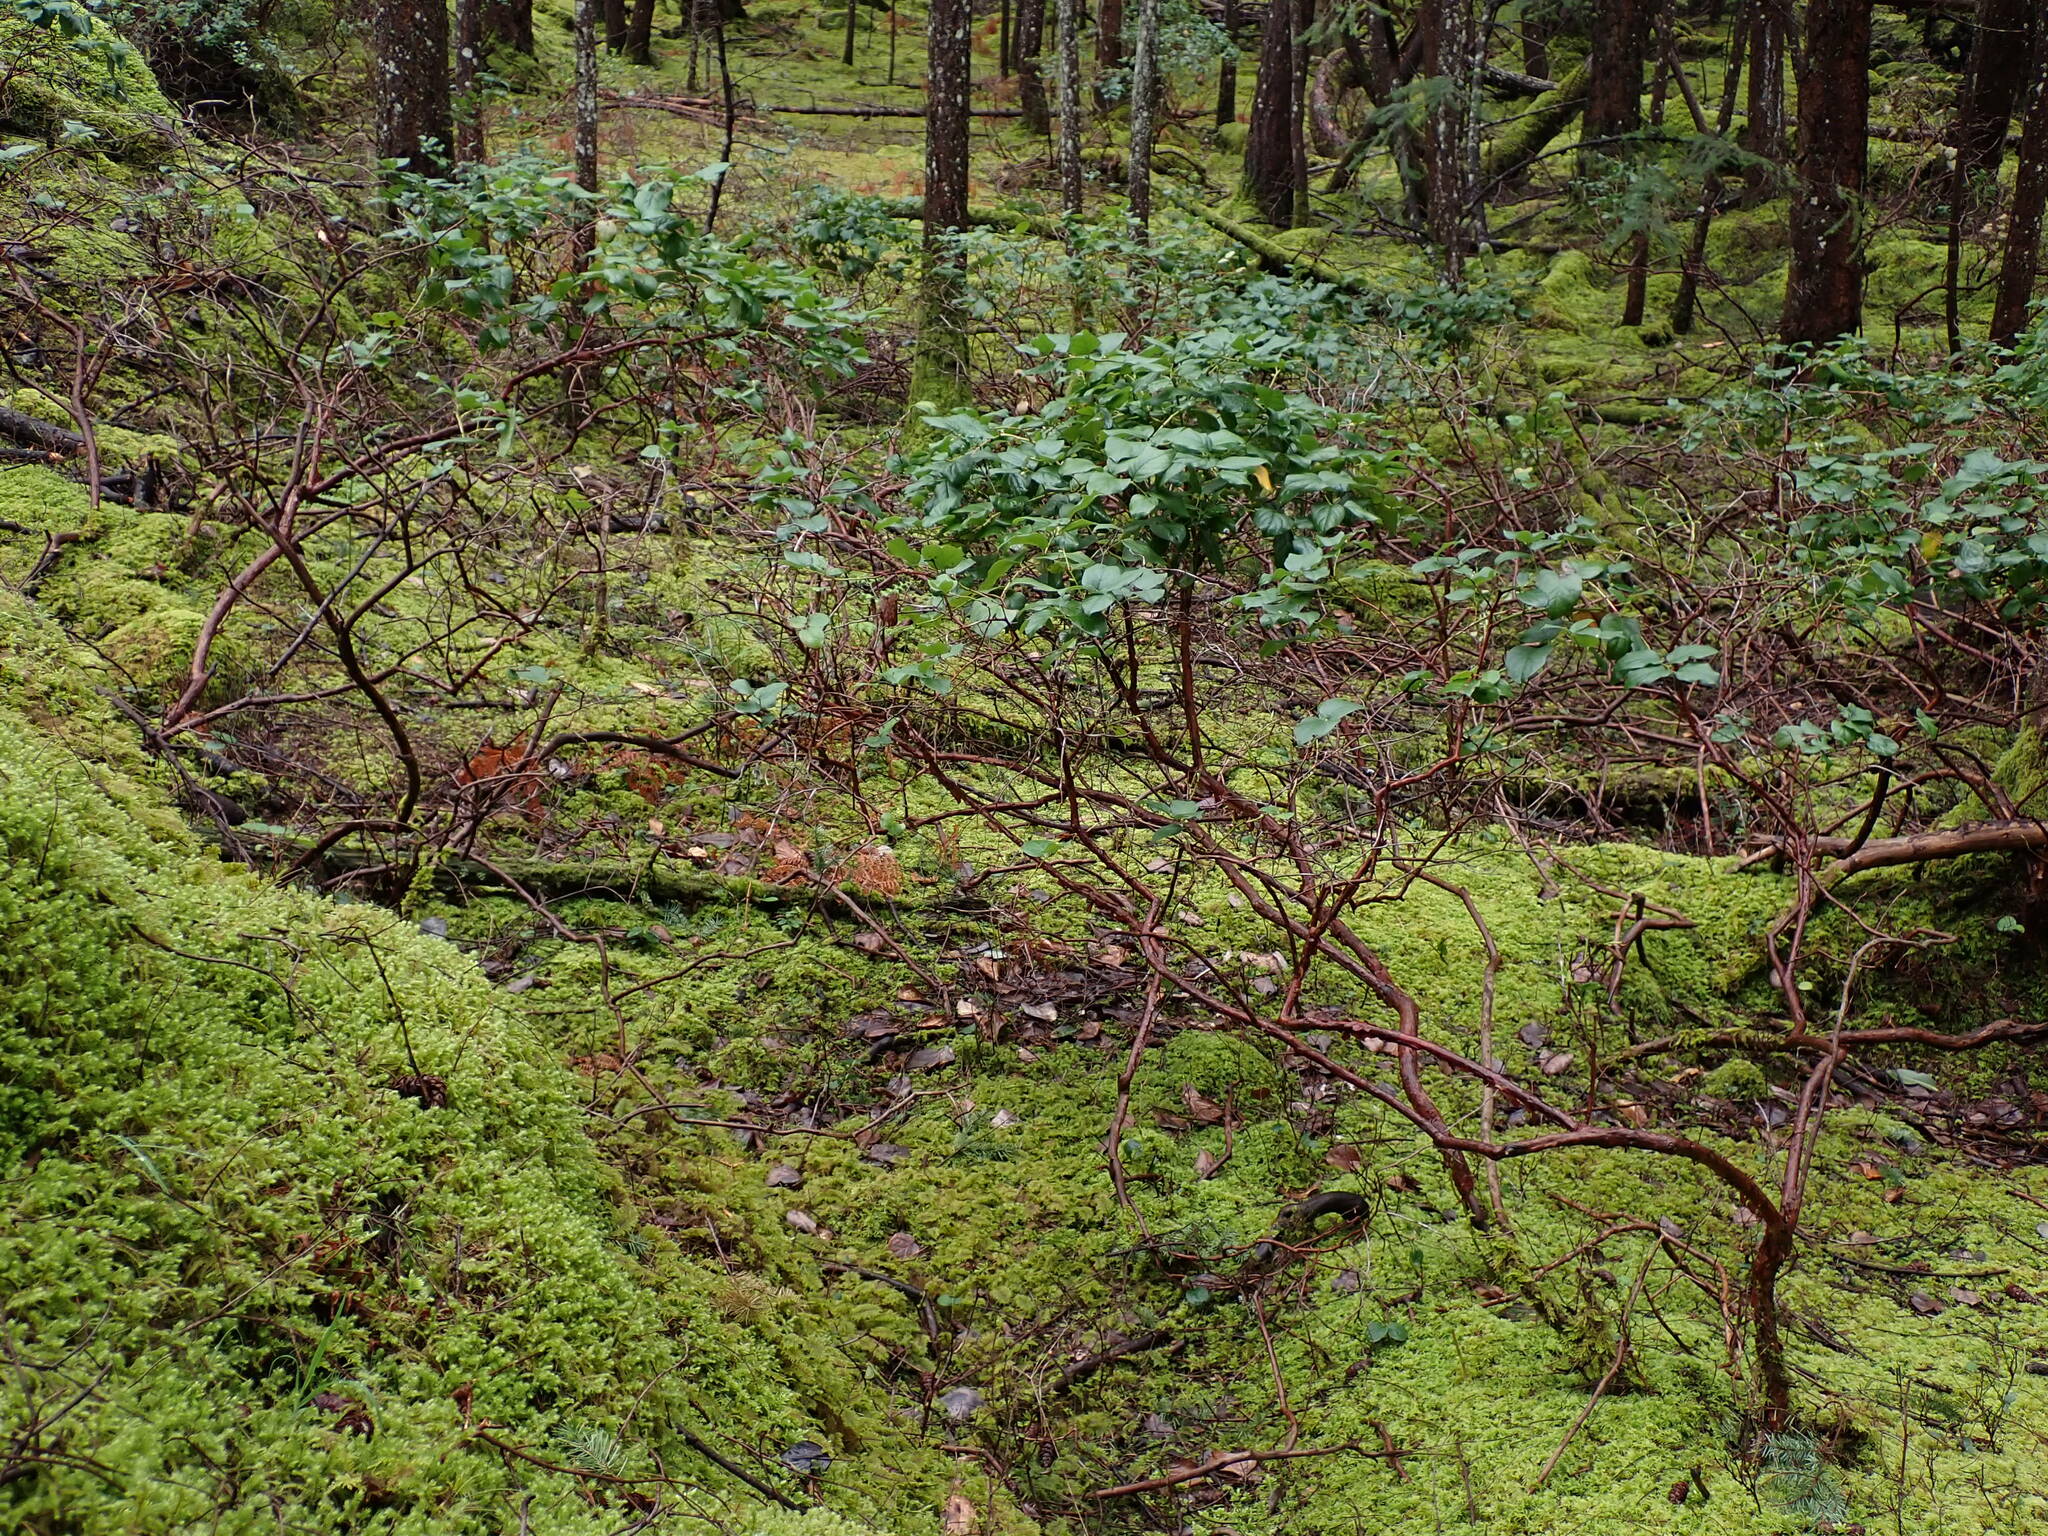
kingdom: Plantae
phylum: Tracheophyta
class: Magnoliopsida
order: Ericales
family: Ericaceae
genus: Gaultheria
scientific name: Gaultheria shallon
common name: Shallon
